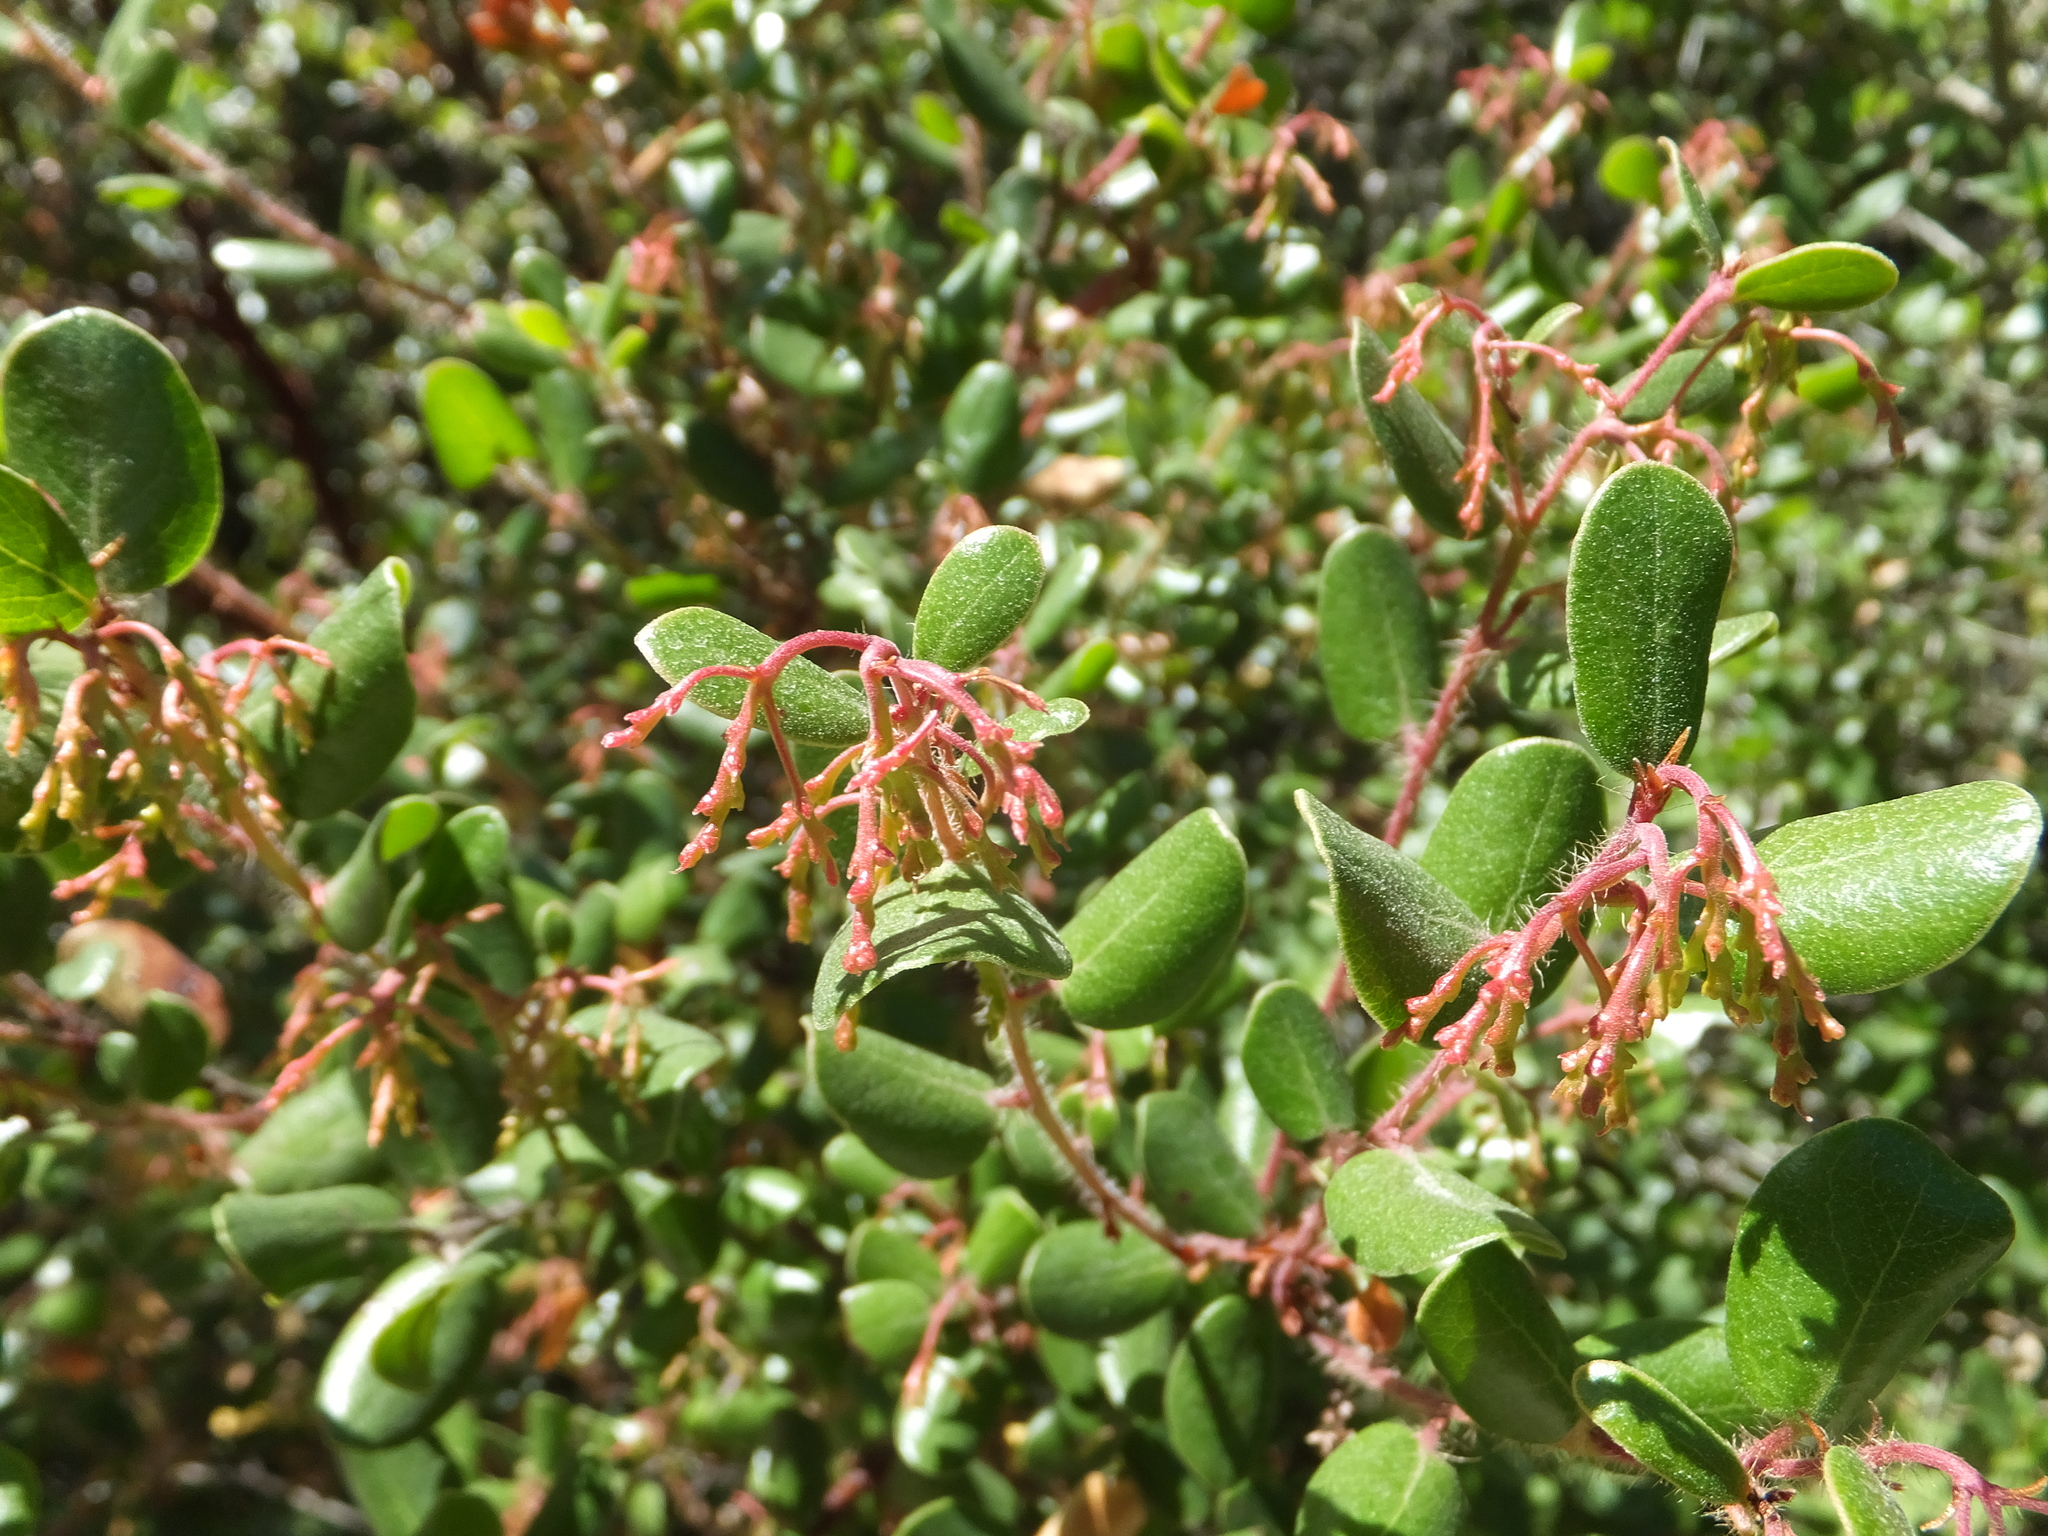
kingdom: Plantae
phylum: Tracheophyta
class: Magnoliopsida
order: Ericales
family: Ericaceae
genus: Arctostaphylos
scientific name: Arctostaphylos nummularia
